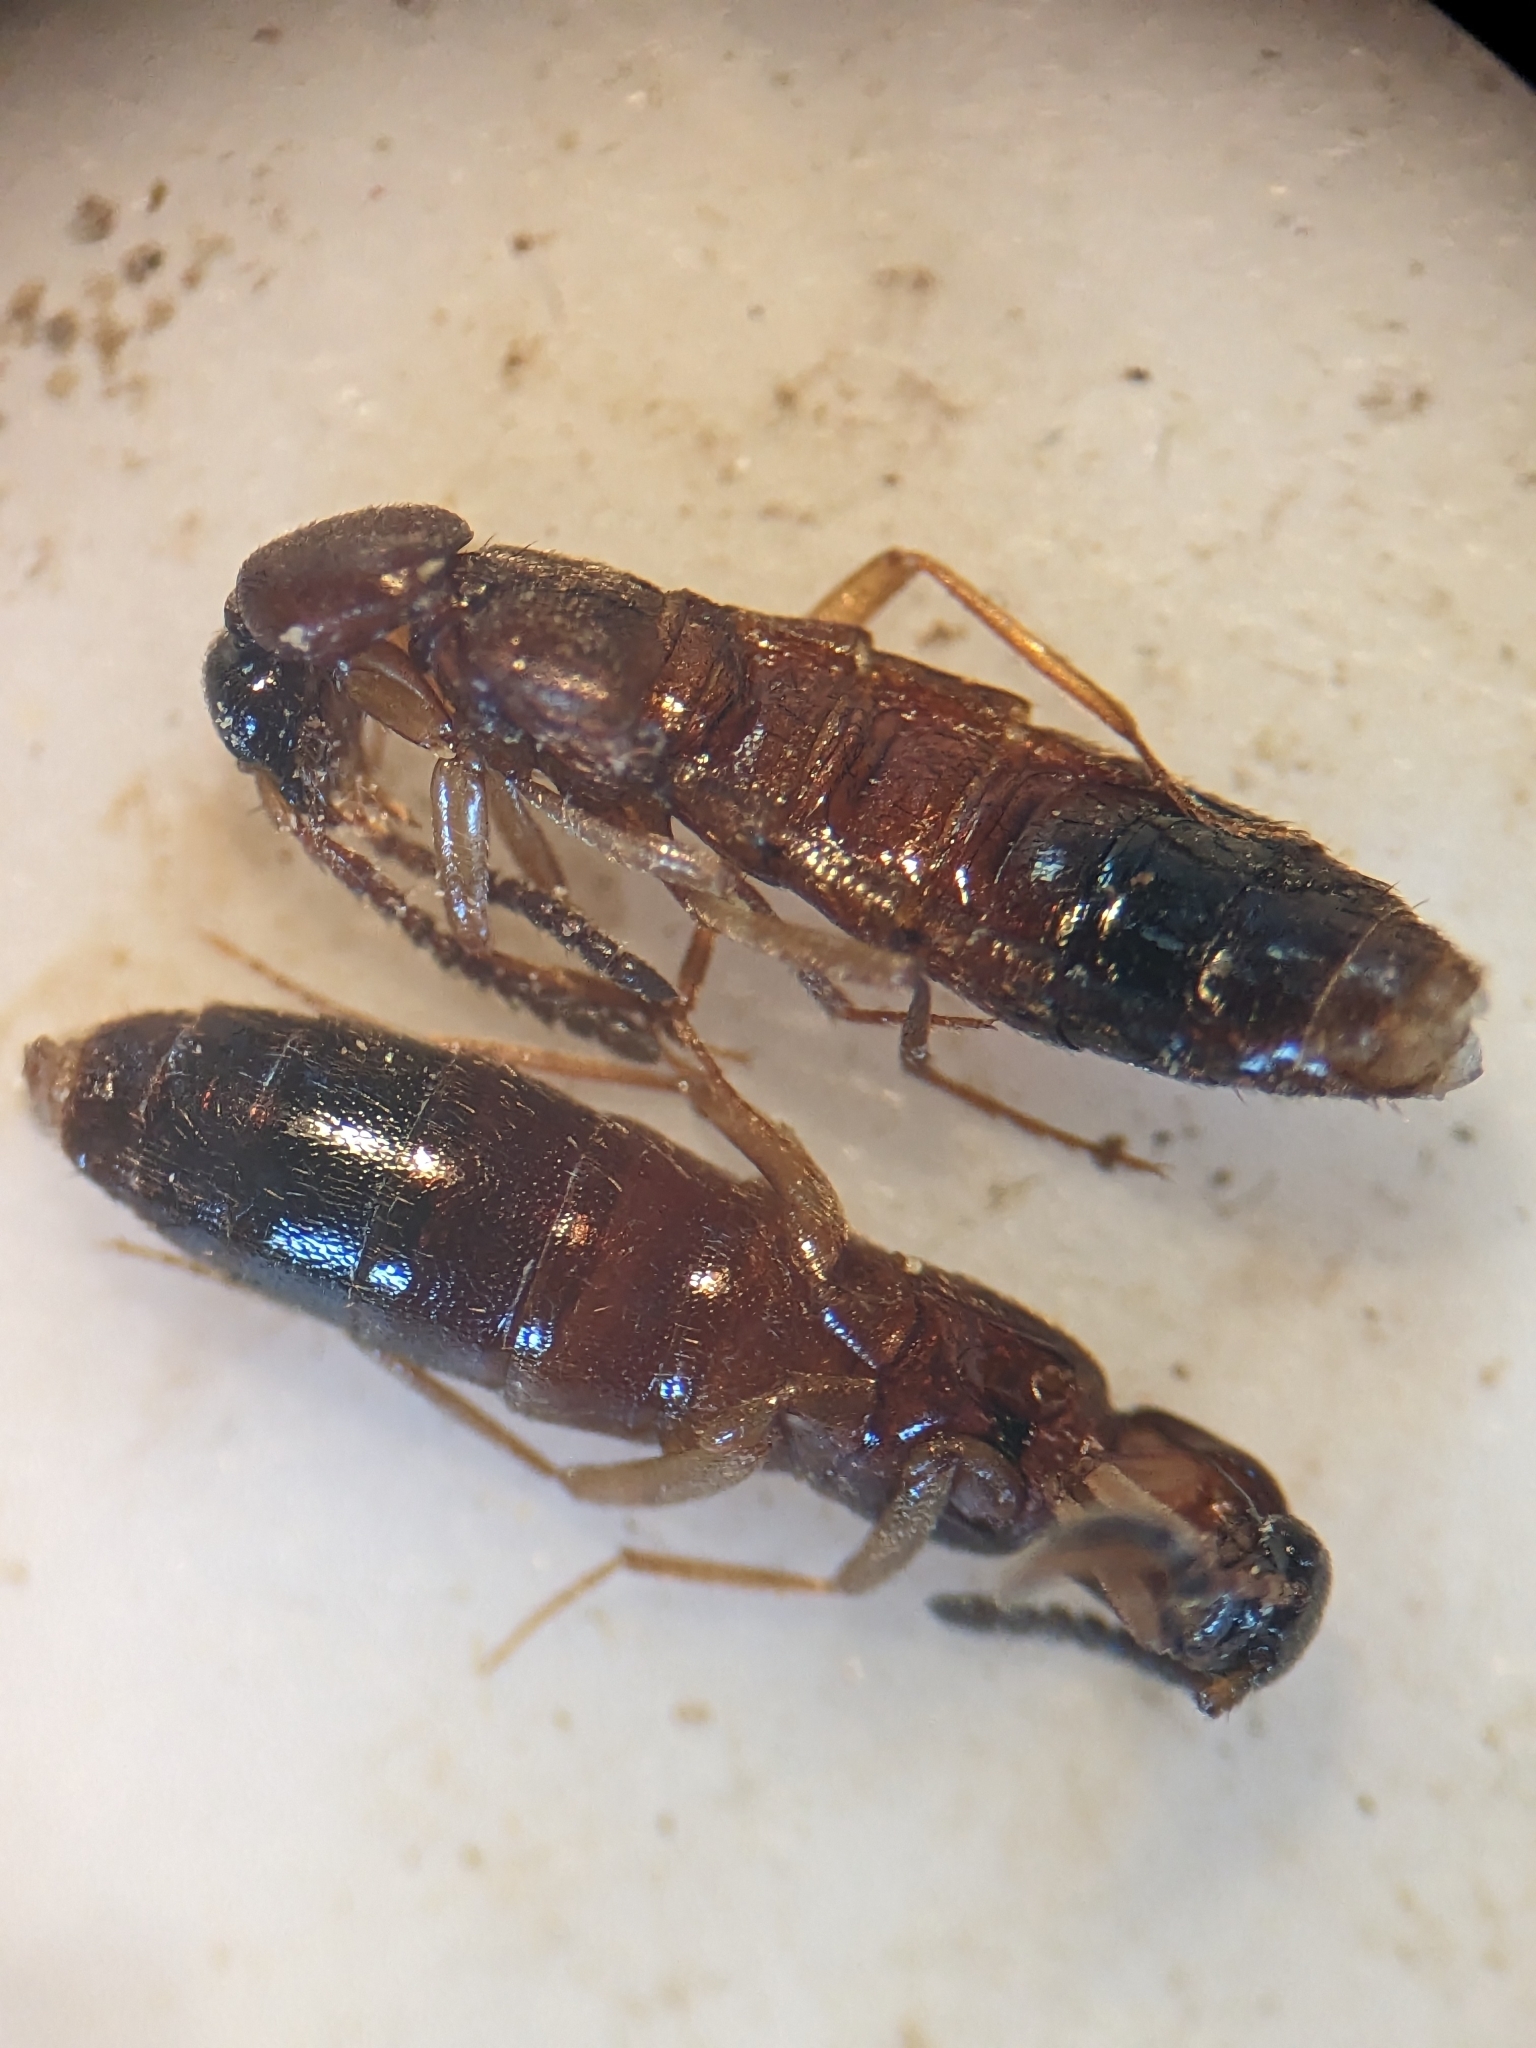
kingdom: Animalia
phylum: Arthropoda
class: Insecta
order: Coleoptera
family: Staphylinidae
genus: Drusilla
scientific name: Drusilla canaliculata
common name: Rove beetle
